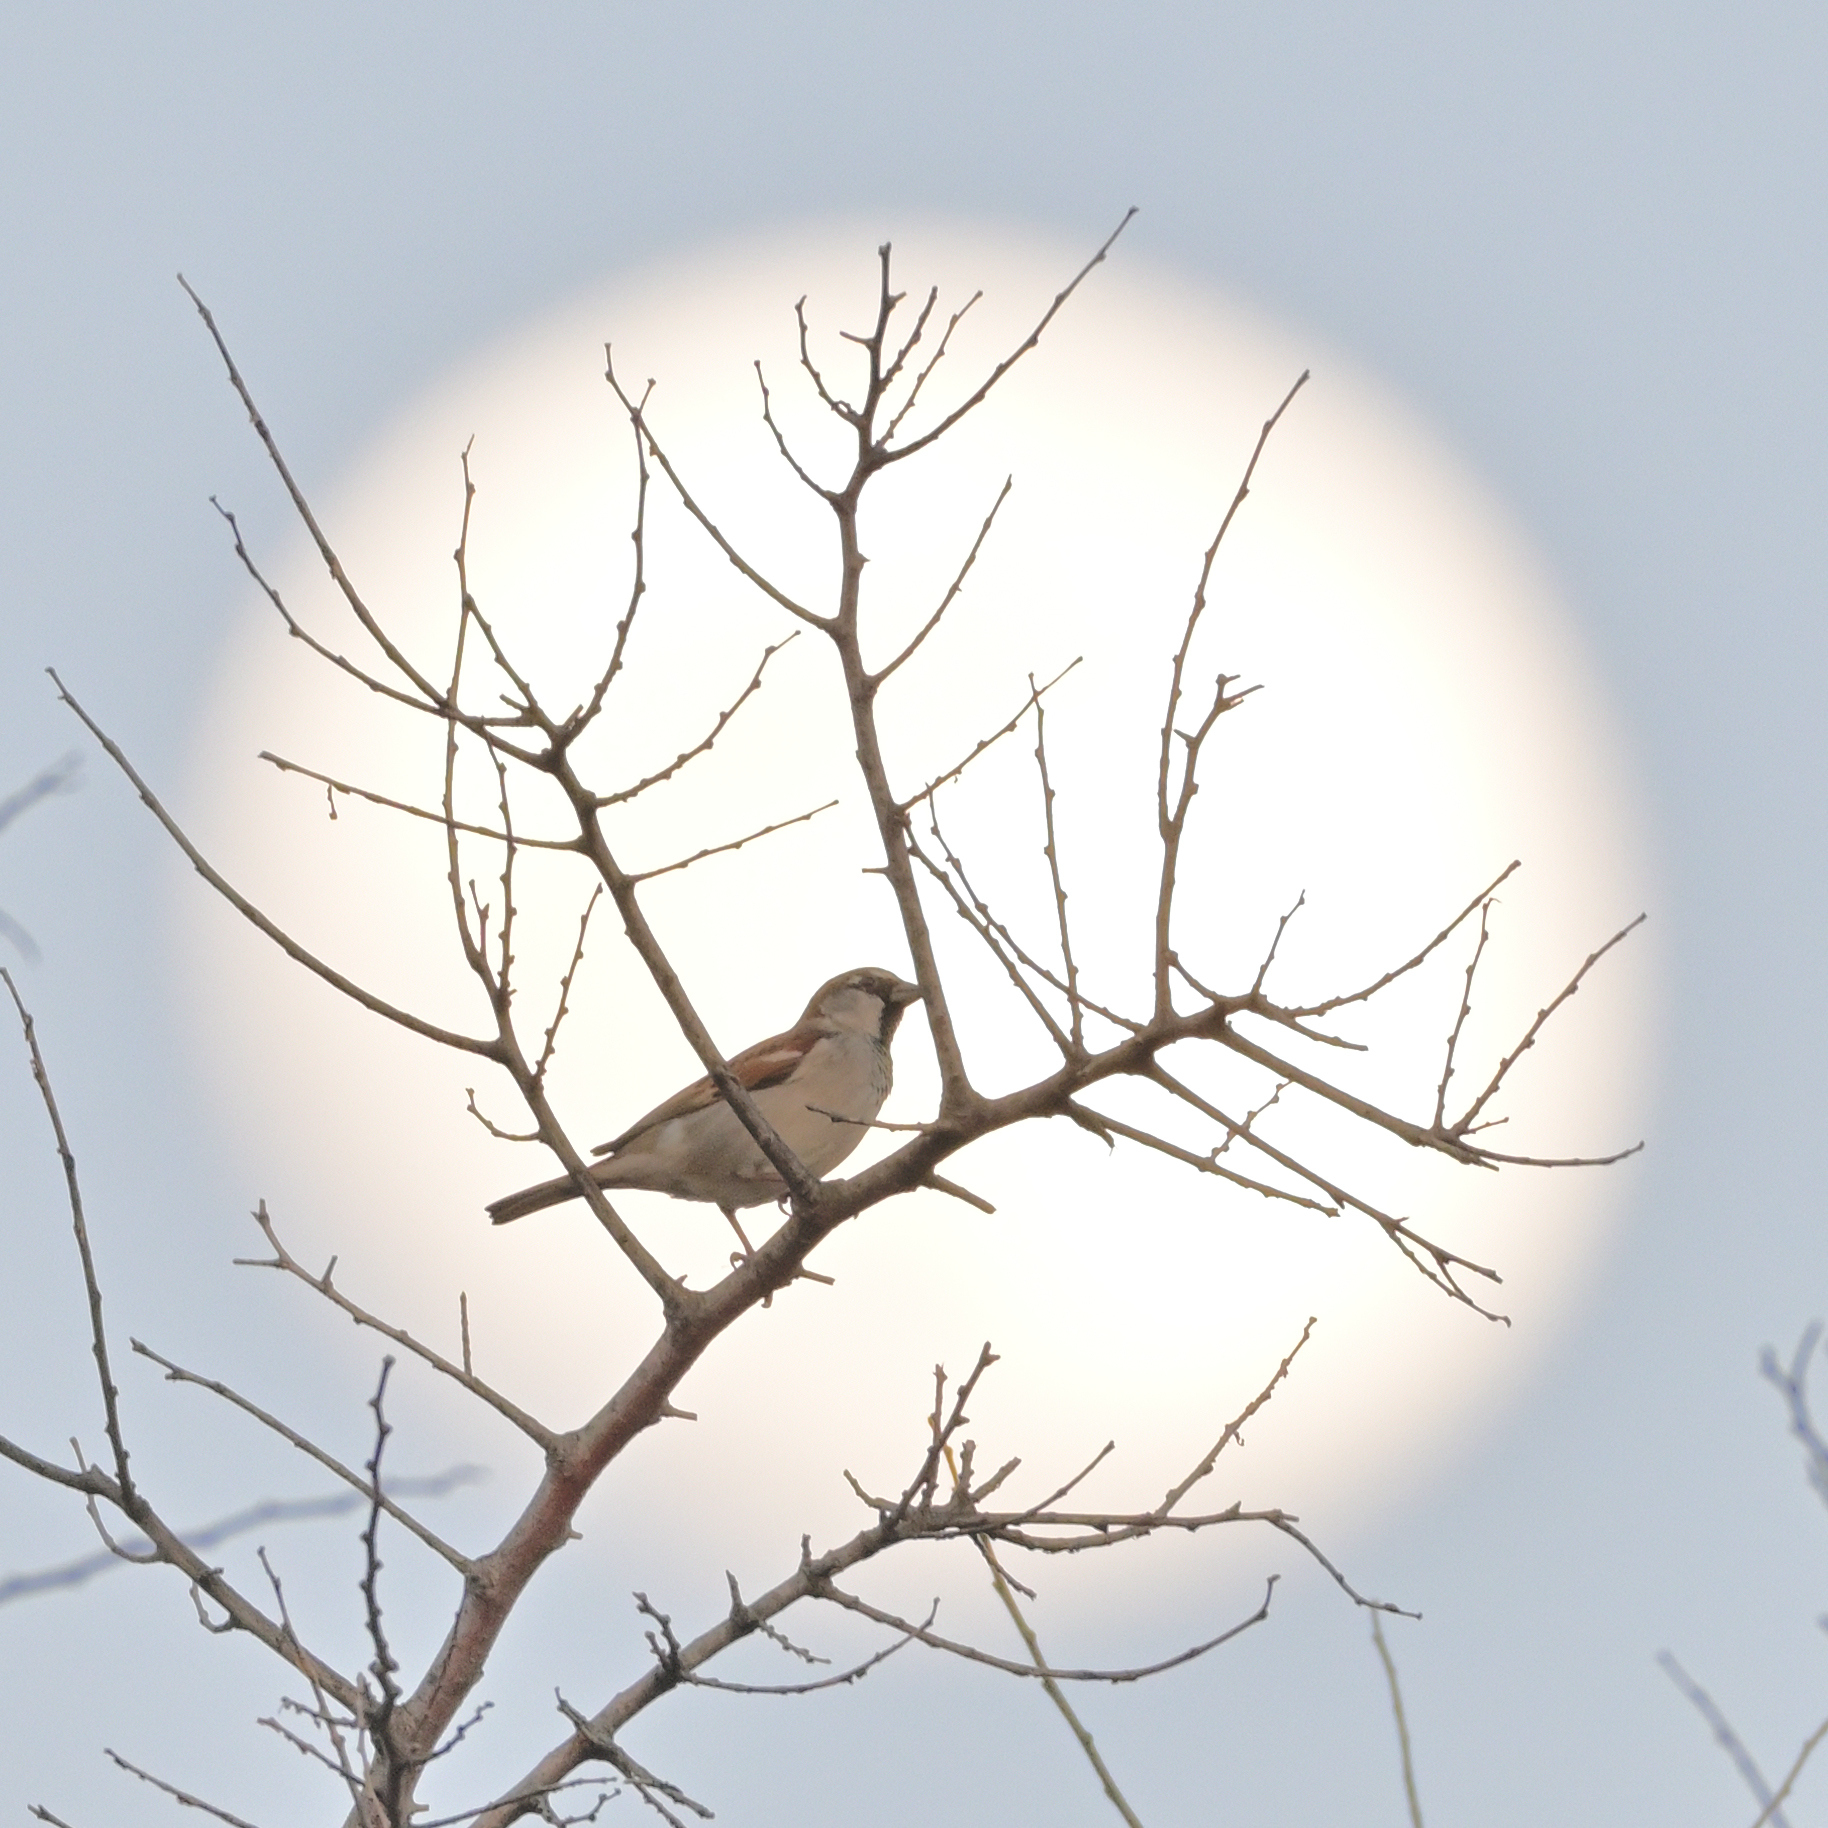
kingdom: Animalia
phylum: Chordata
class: Aves
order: Passeriformes
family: Passeridae
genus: Passer
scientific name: Passer domesticus
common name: House sparrow
